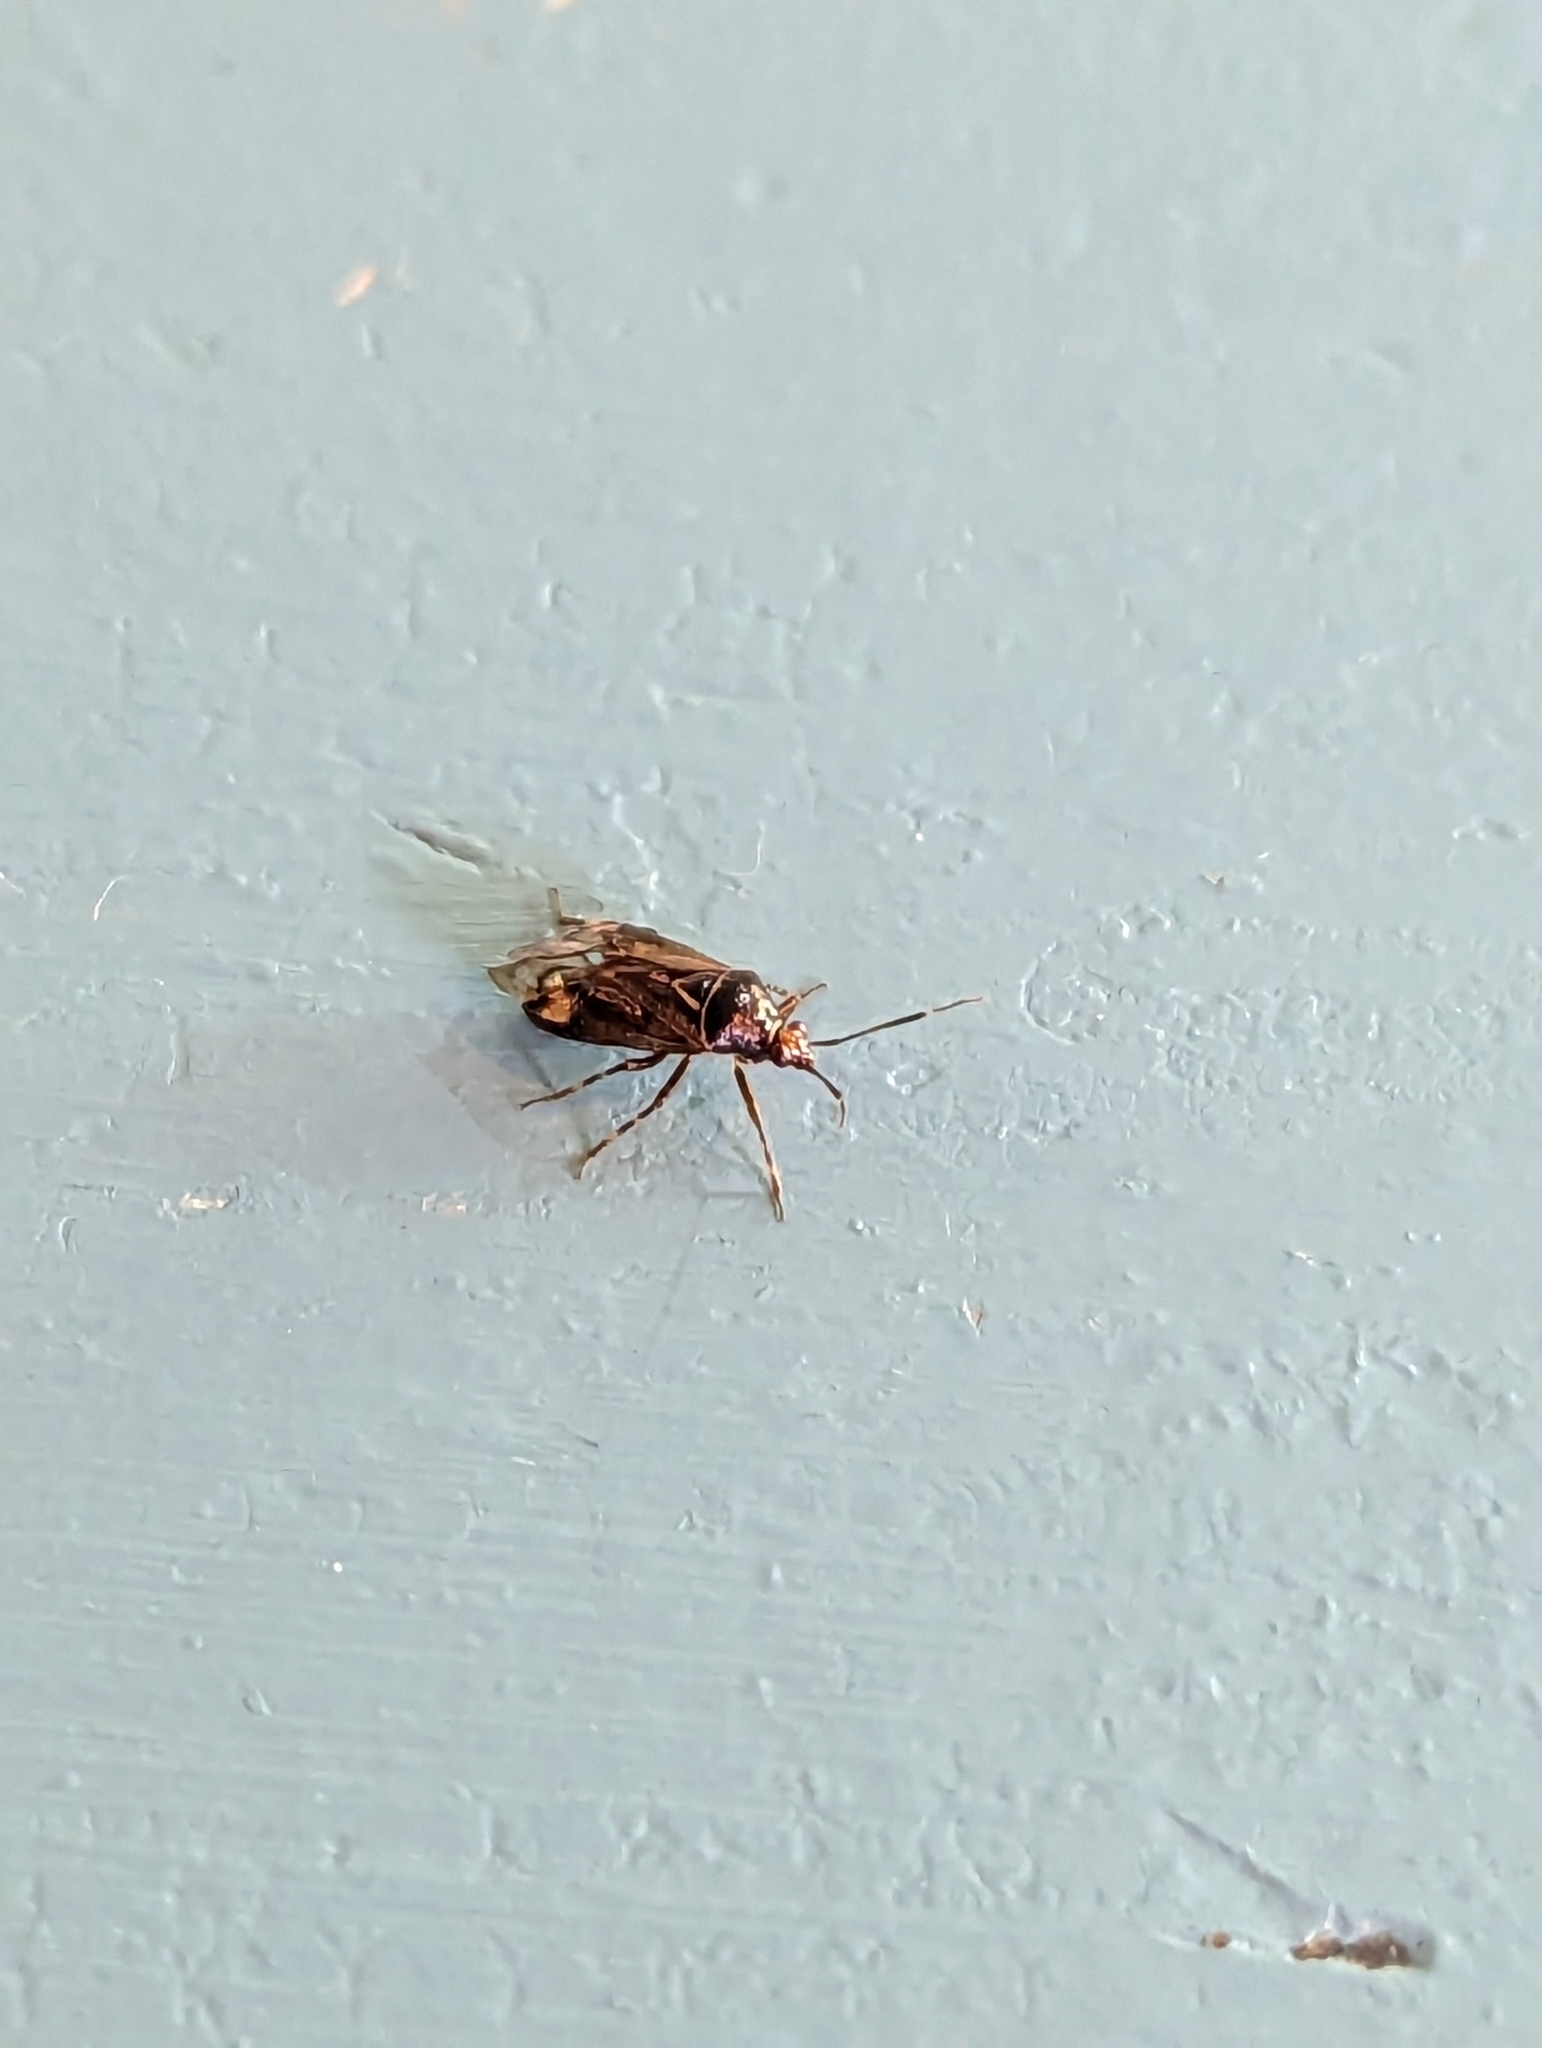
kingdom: Animalia
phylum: Arthropoda
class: Insecta
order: Hemiptera
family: Miridae
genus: Deraeocoris
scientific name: Deraeocoris flavilinea
